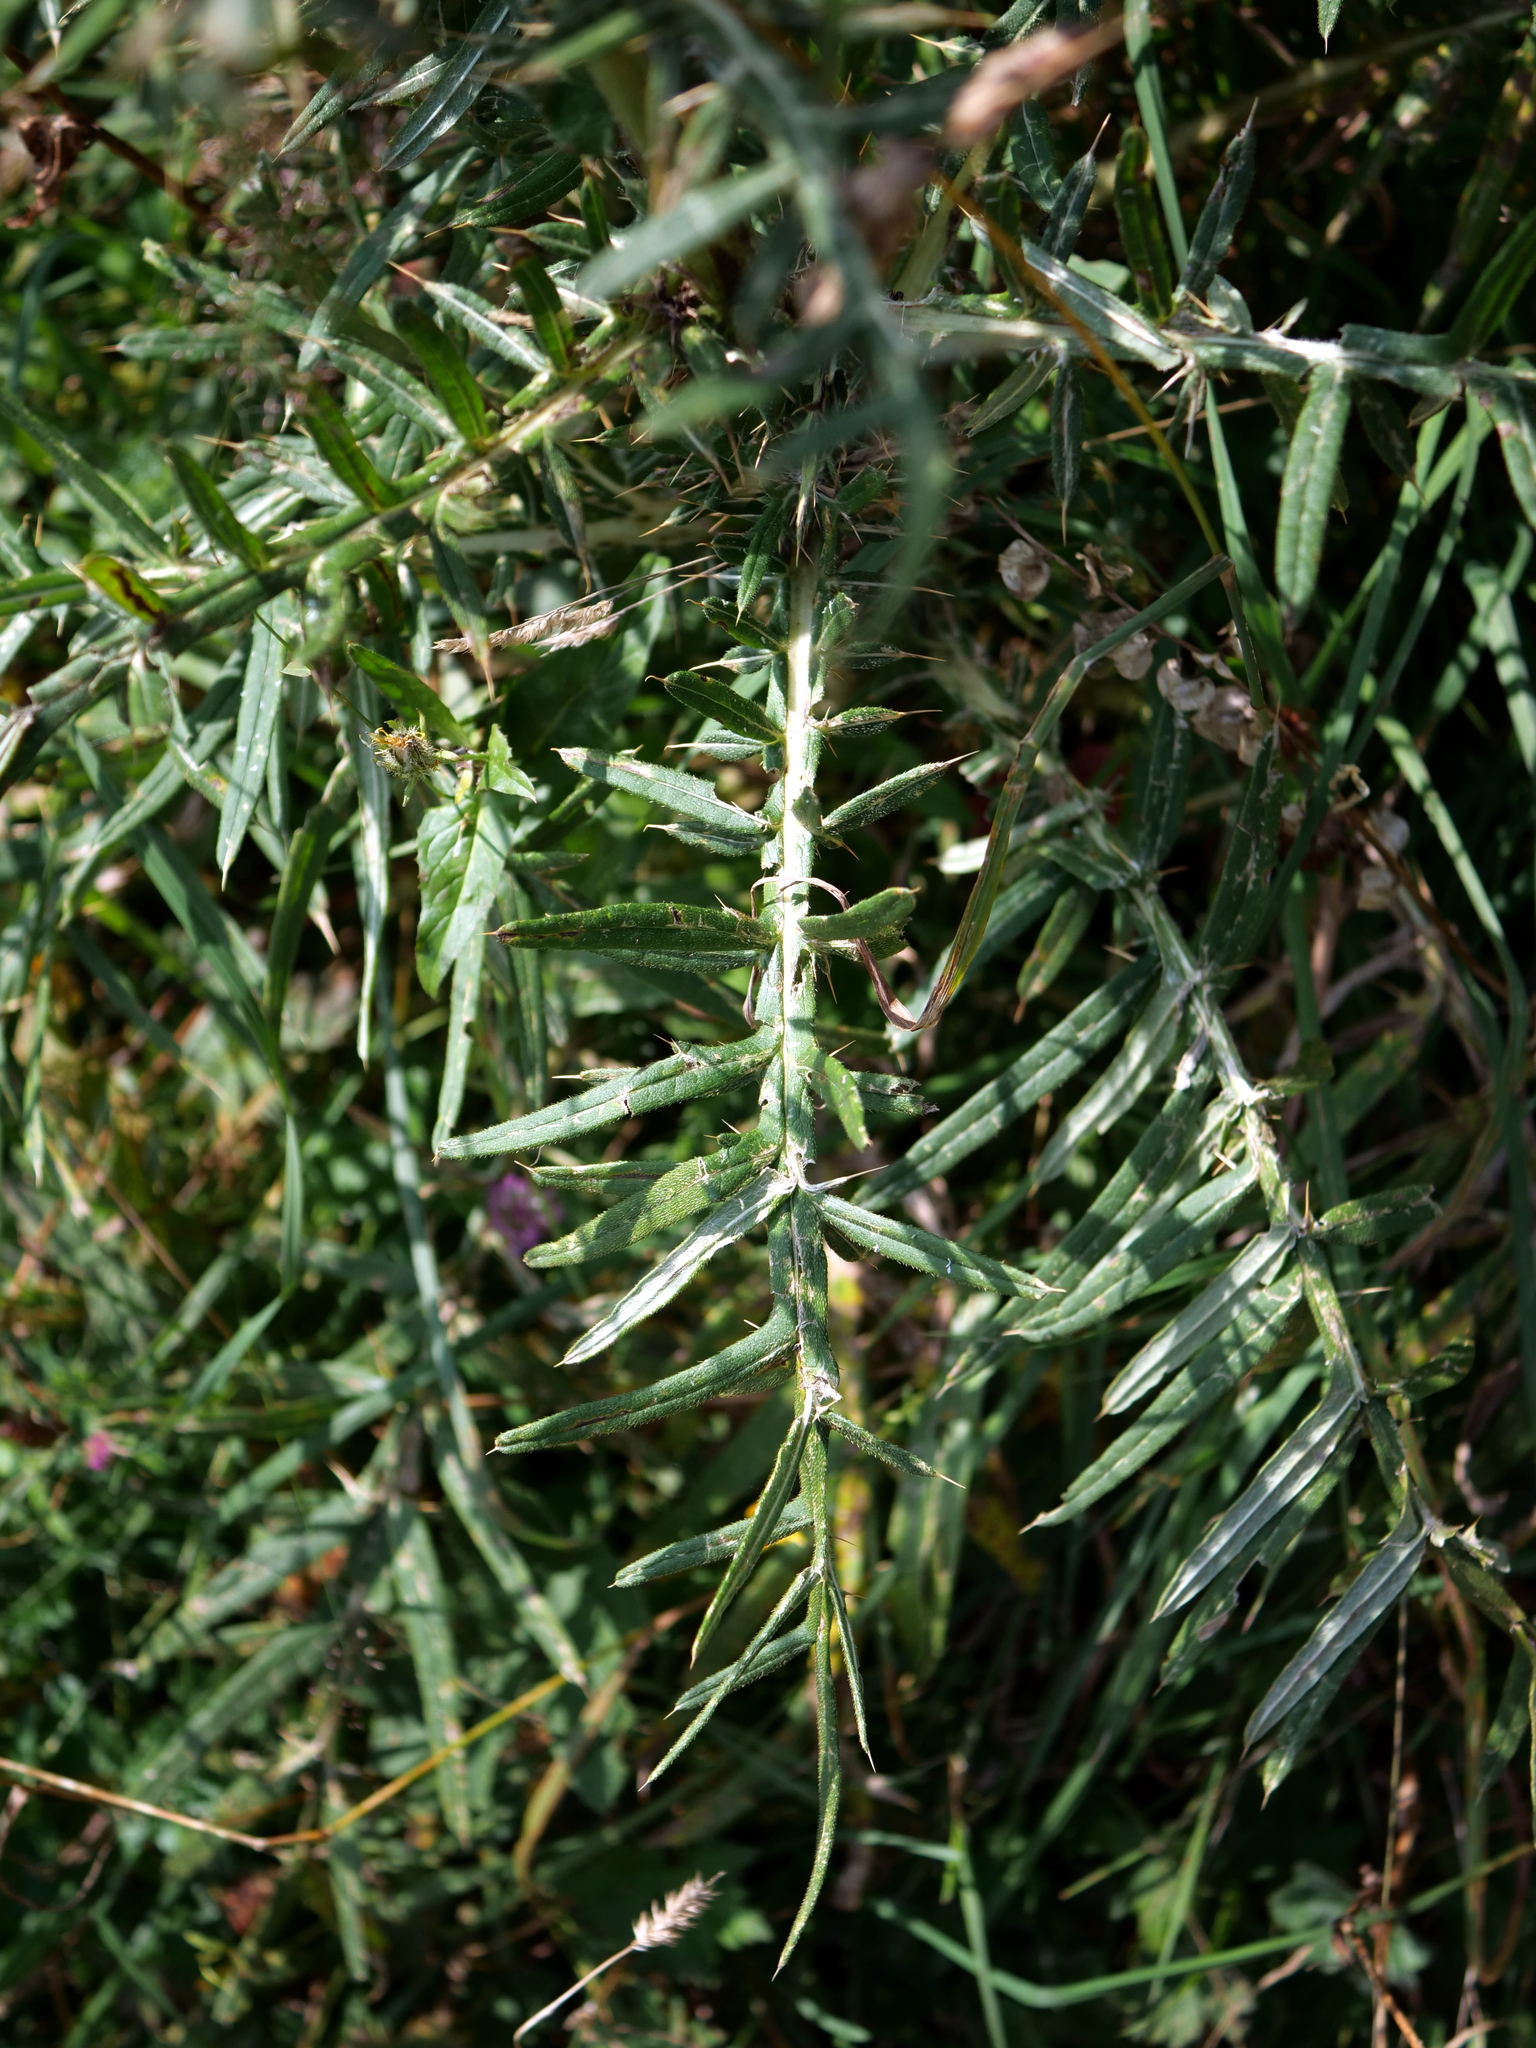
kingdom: Plantae
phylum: Tracheophyta
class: Magnoliopsida
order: Asterales
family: Asteraceae
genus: Lophiolepis
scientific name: Lophiolepis eriophora
